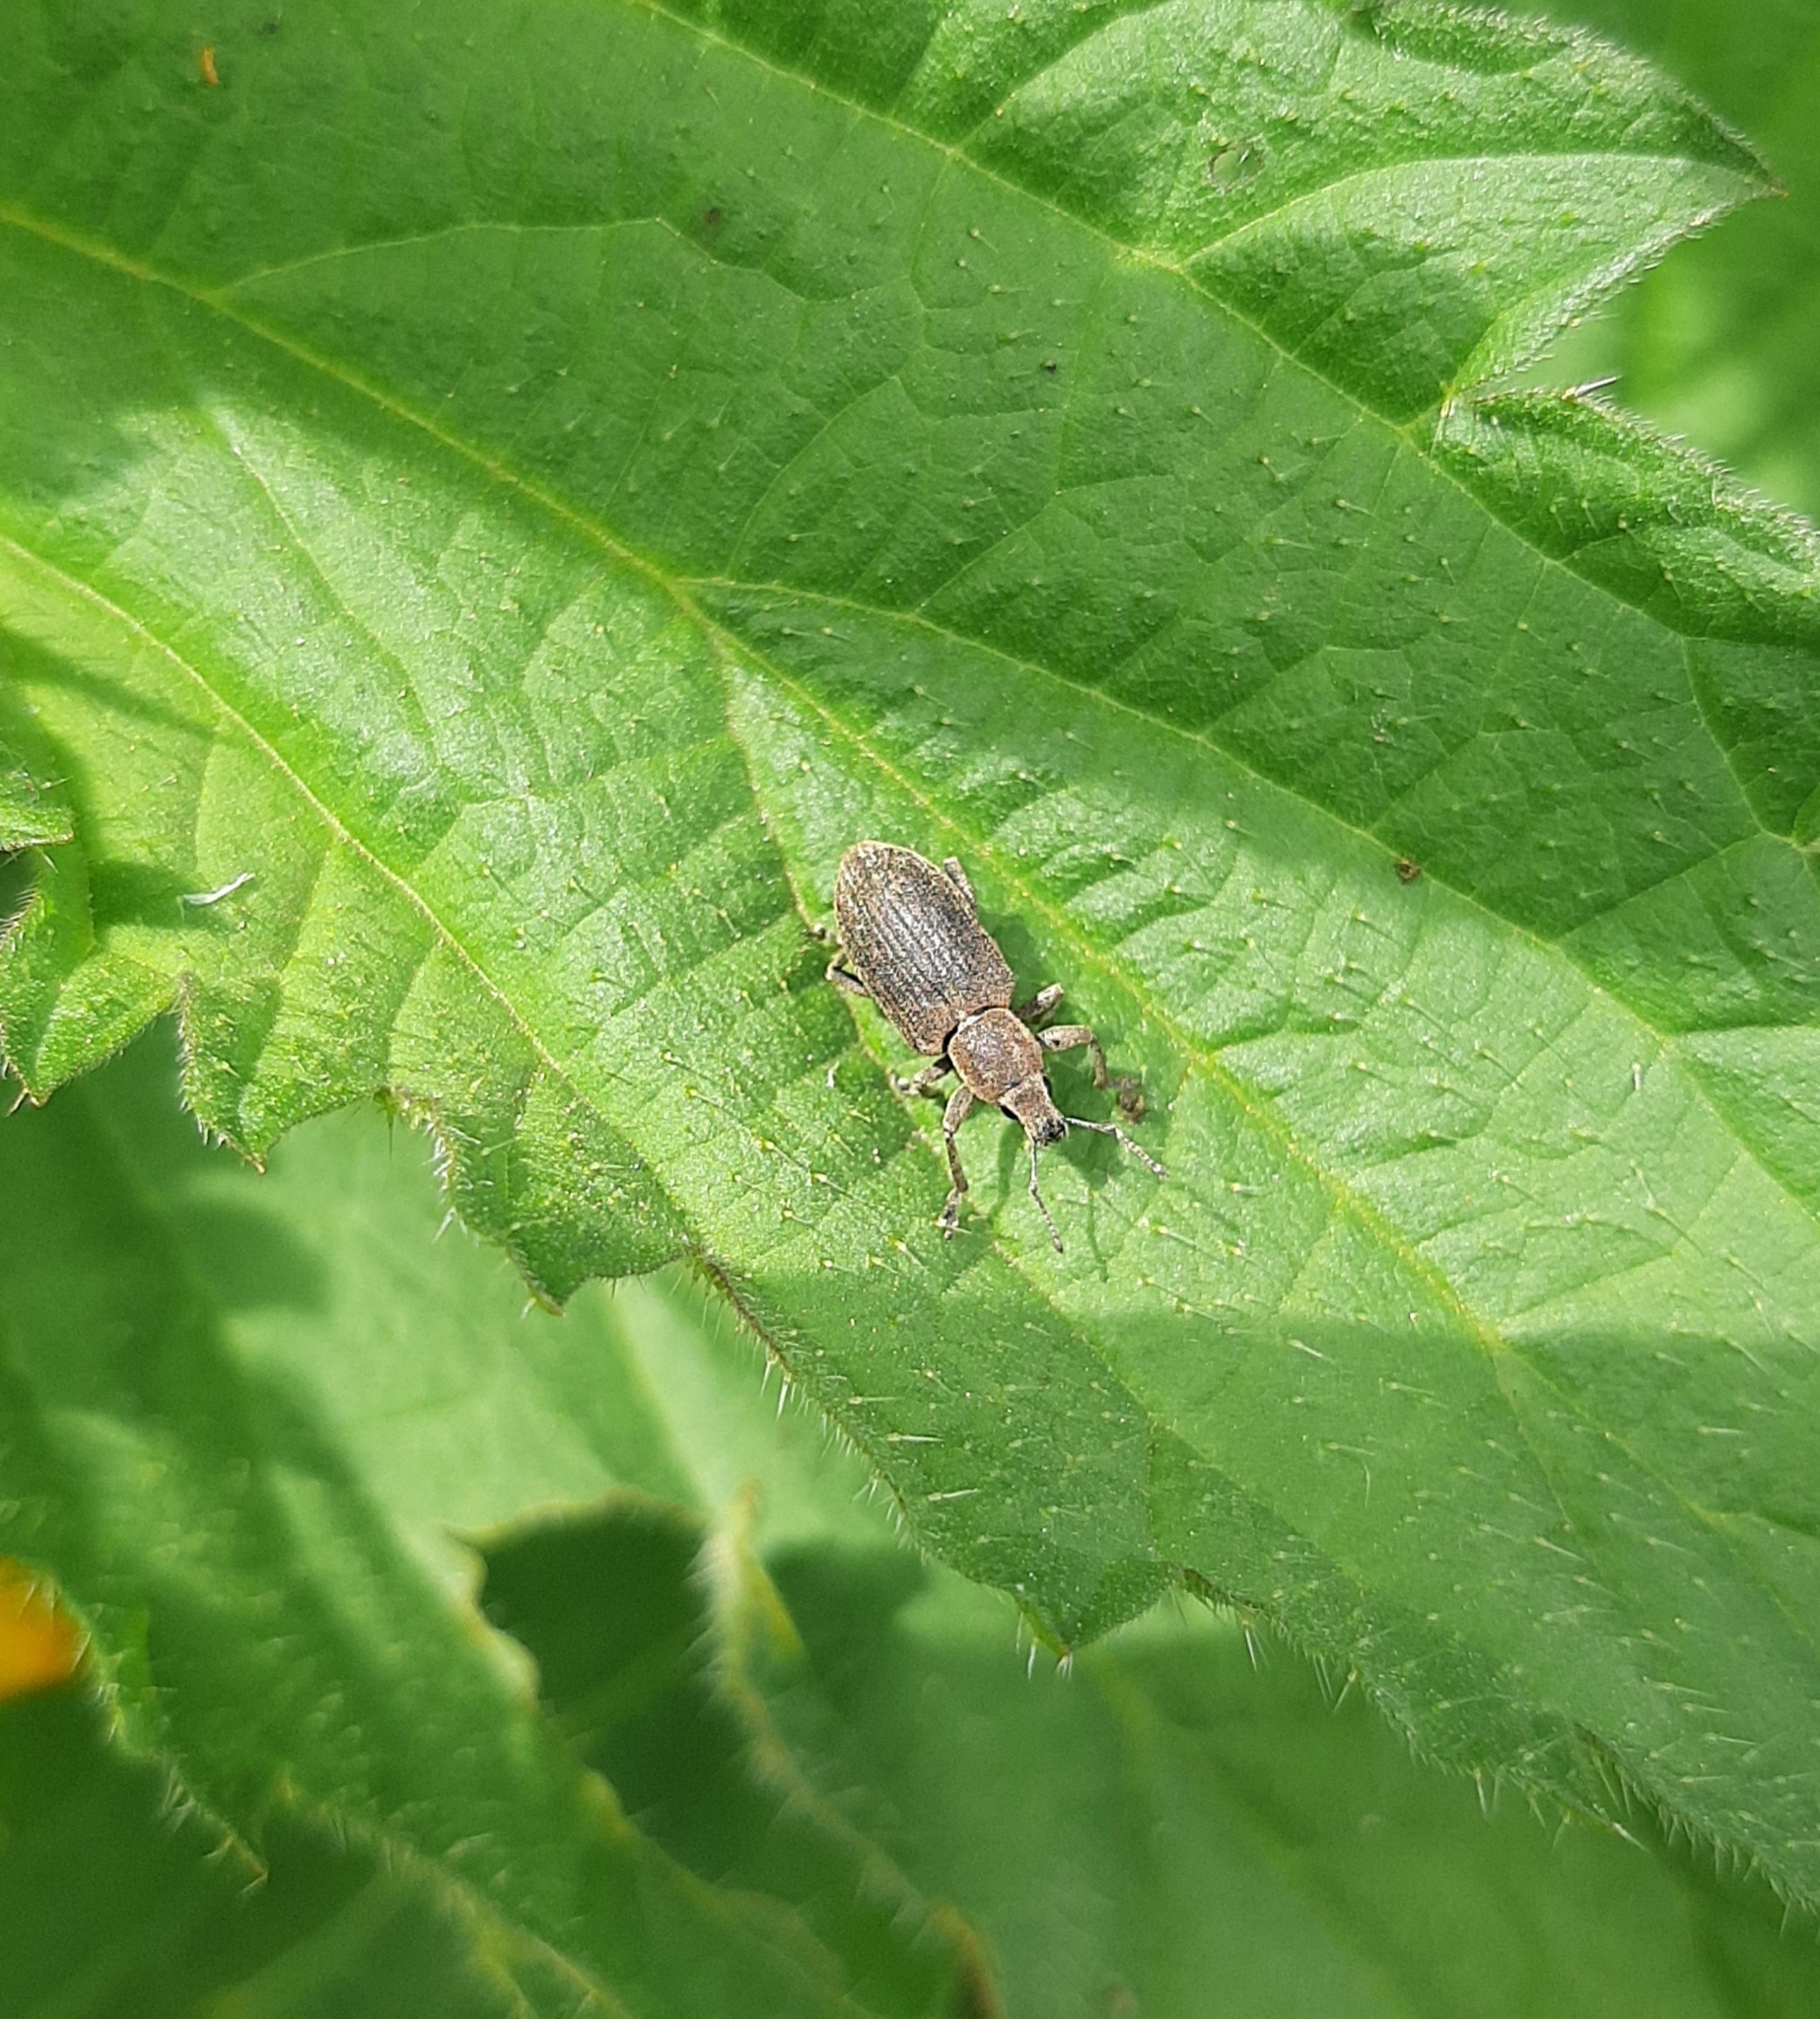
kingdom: Animalia
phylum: Arthropoda
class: Insecta
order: Coleoptera
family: Curculionidae
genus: Tanymecus
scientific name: Tanymecus palliatus
